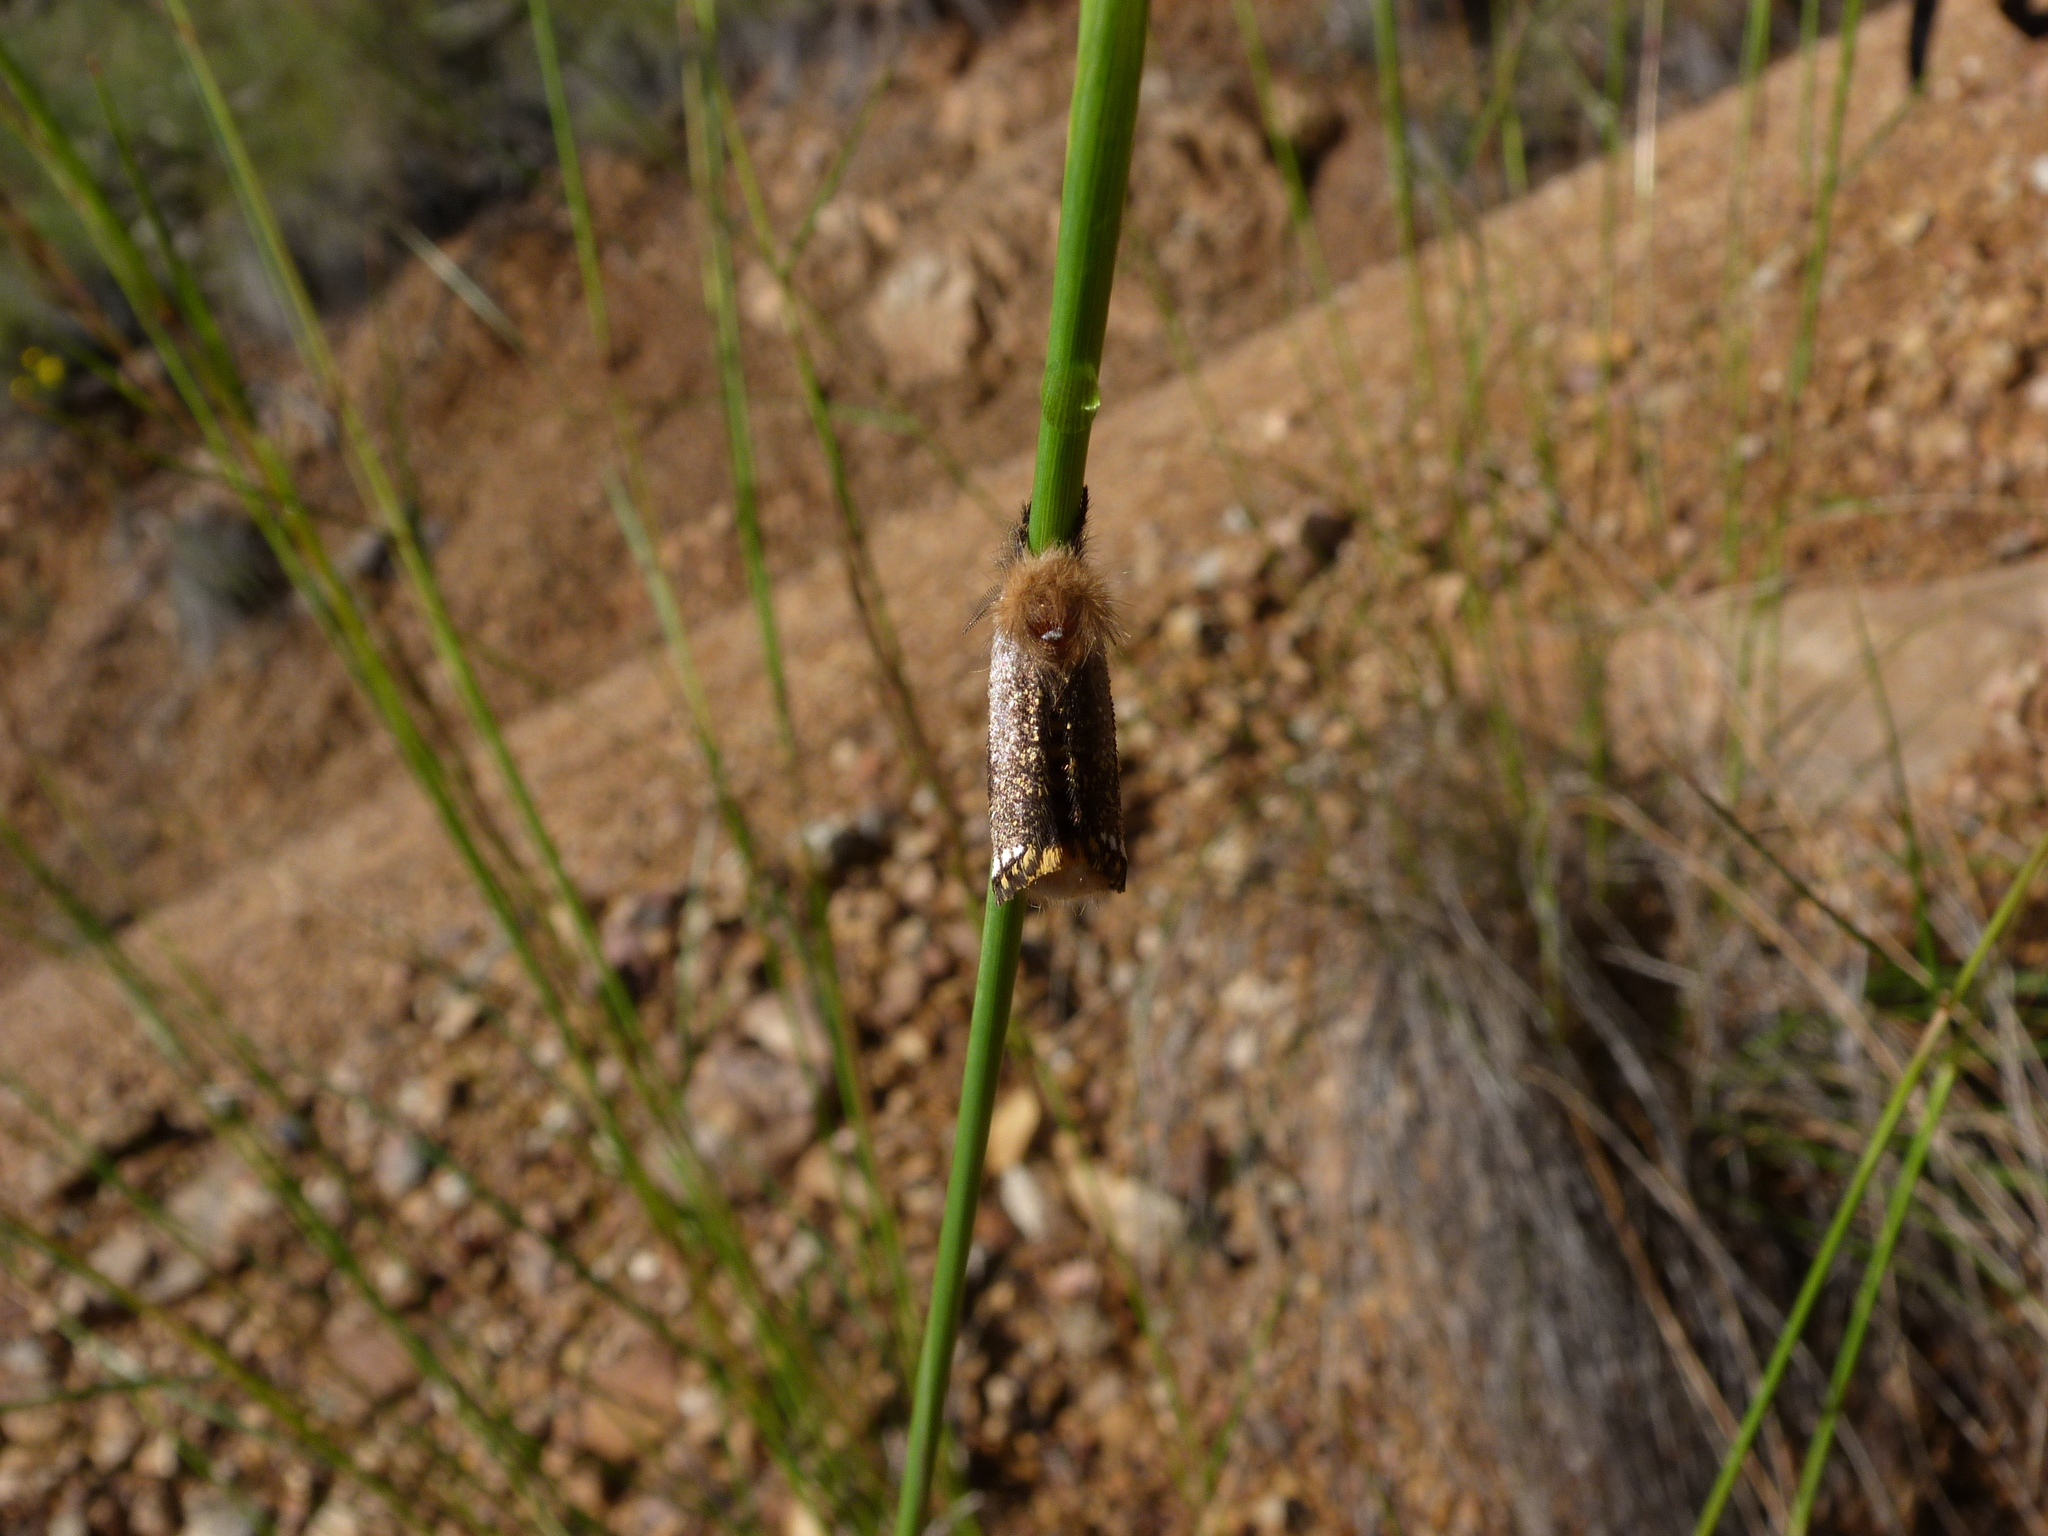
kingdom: Animalia
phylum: Arthropoda
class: Insecta
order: Lepidoptera
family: Notodontidae
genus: Epicoma
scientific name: Epicoma contristis
